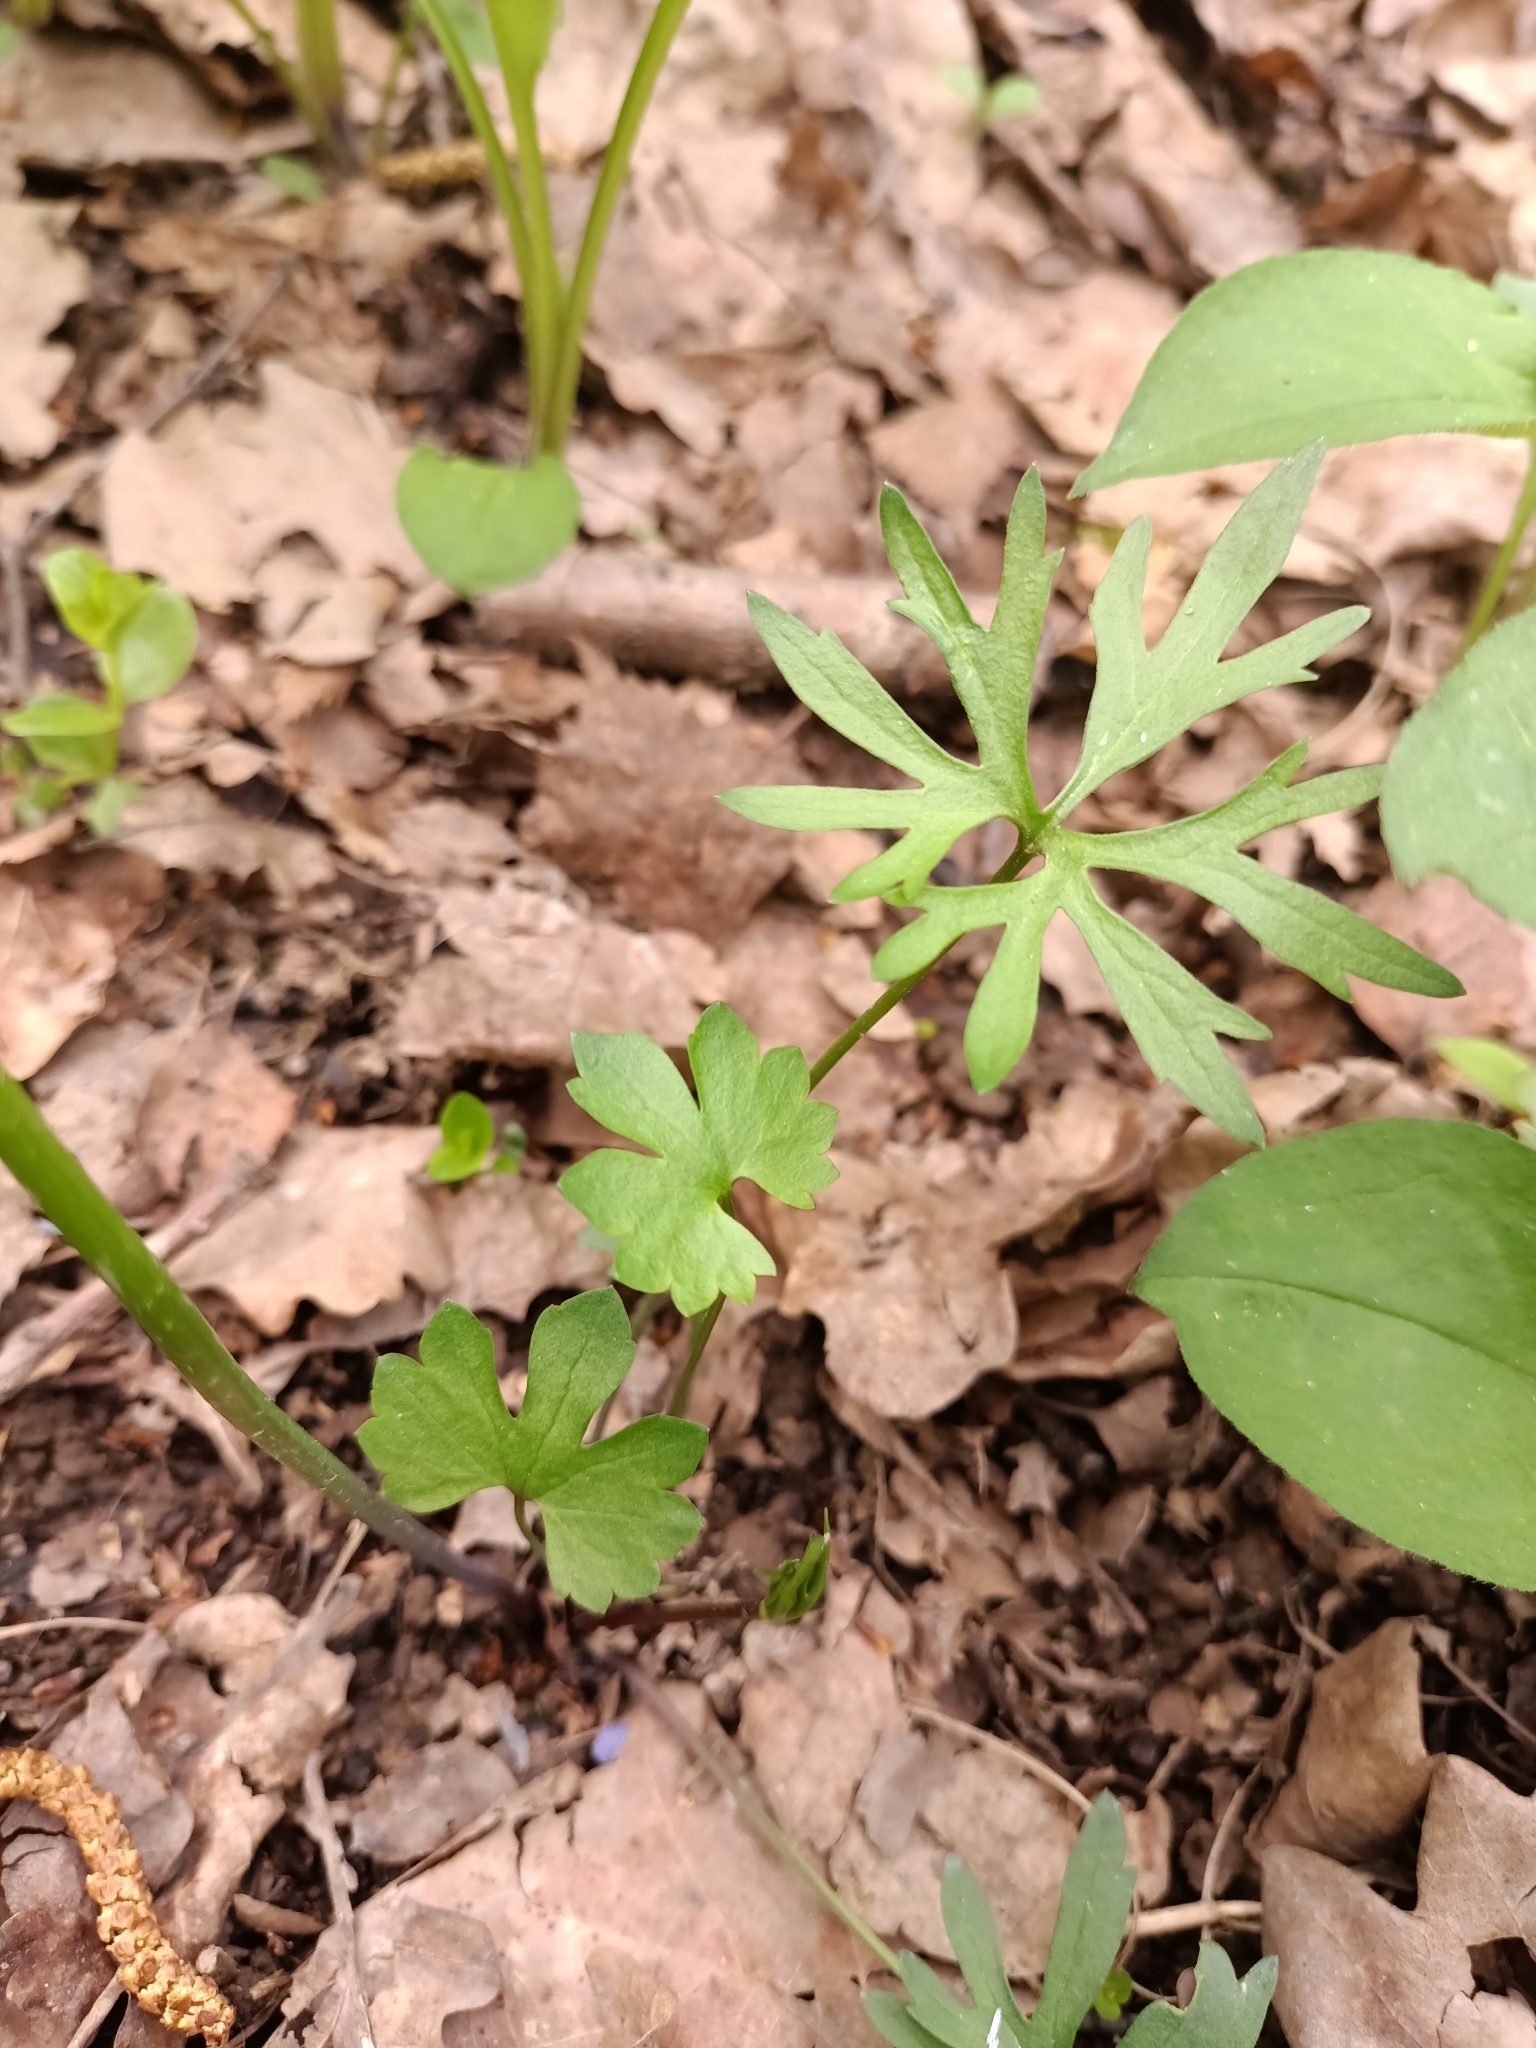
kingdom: Plantae
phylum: Tracheophyta
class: Magnoliopsida
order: Ranunculales
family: Ranunculaceae
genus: Ranunculus
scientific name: Ranunculus auricomus
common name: Goldilocks buttercup
